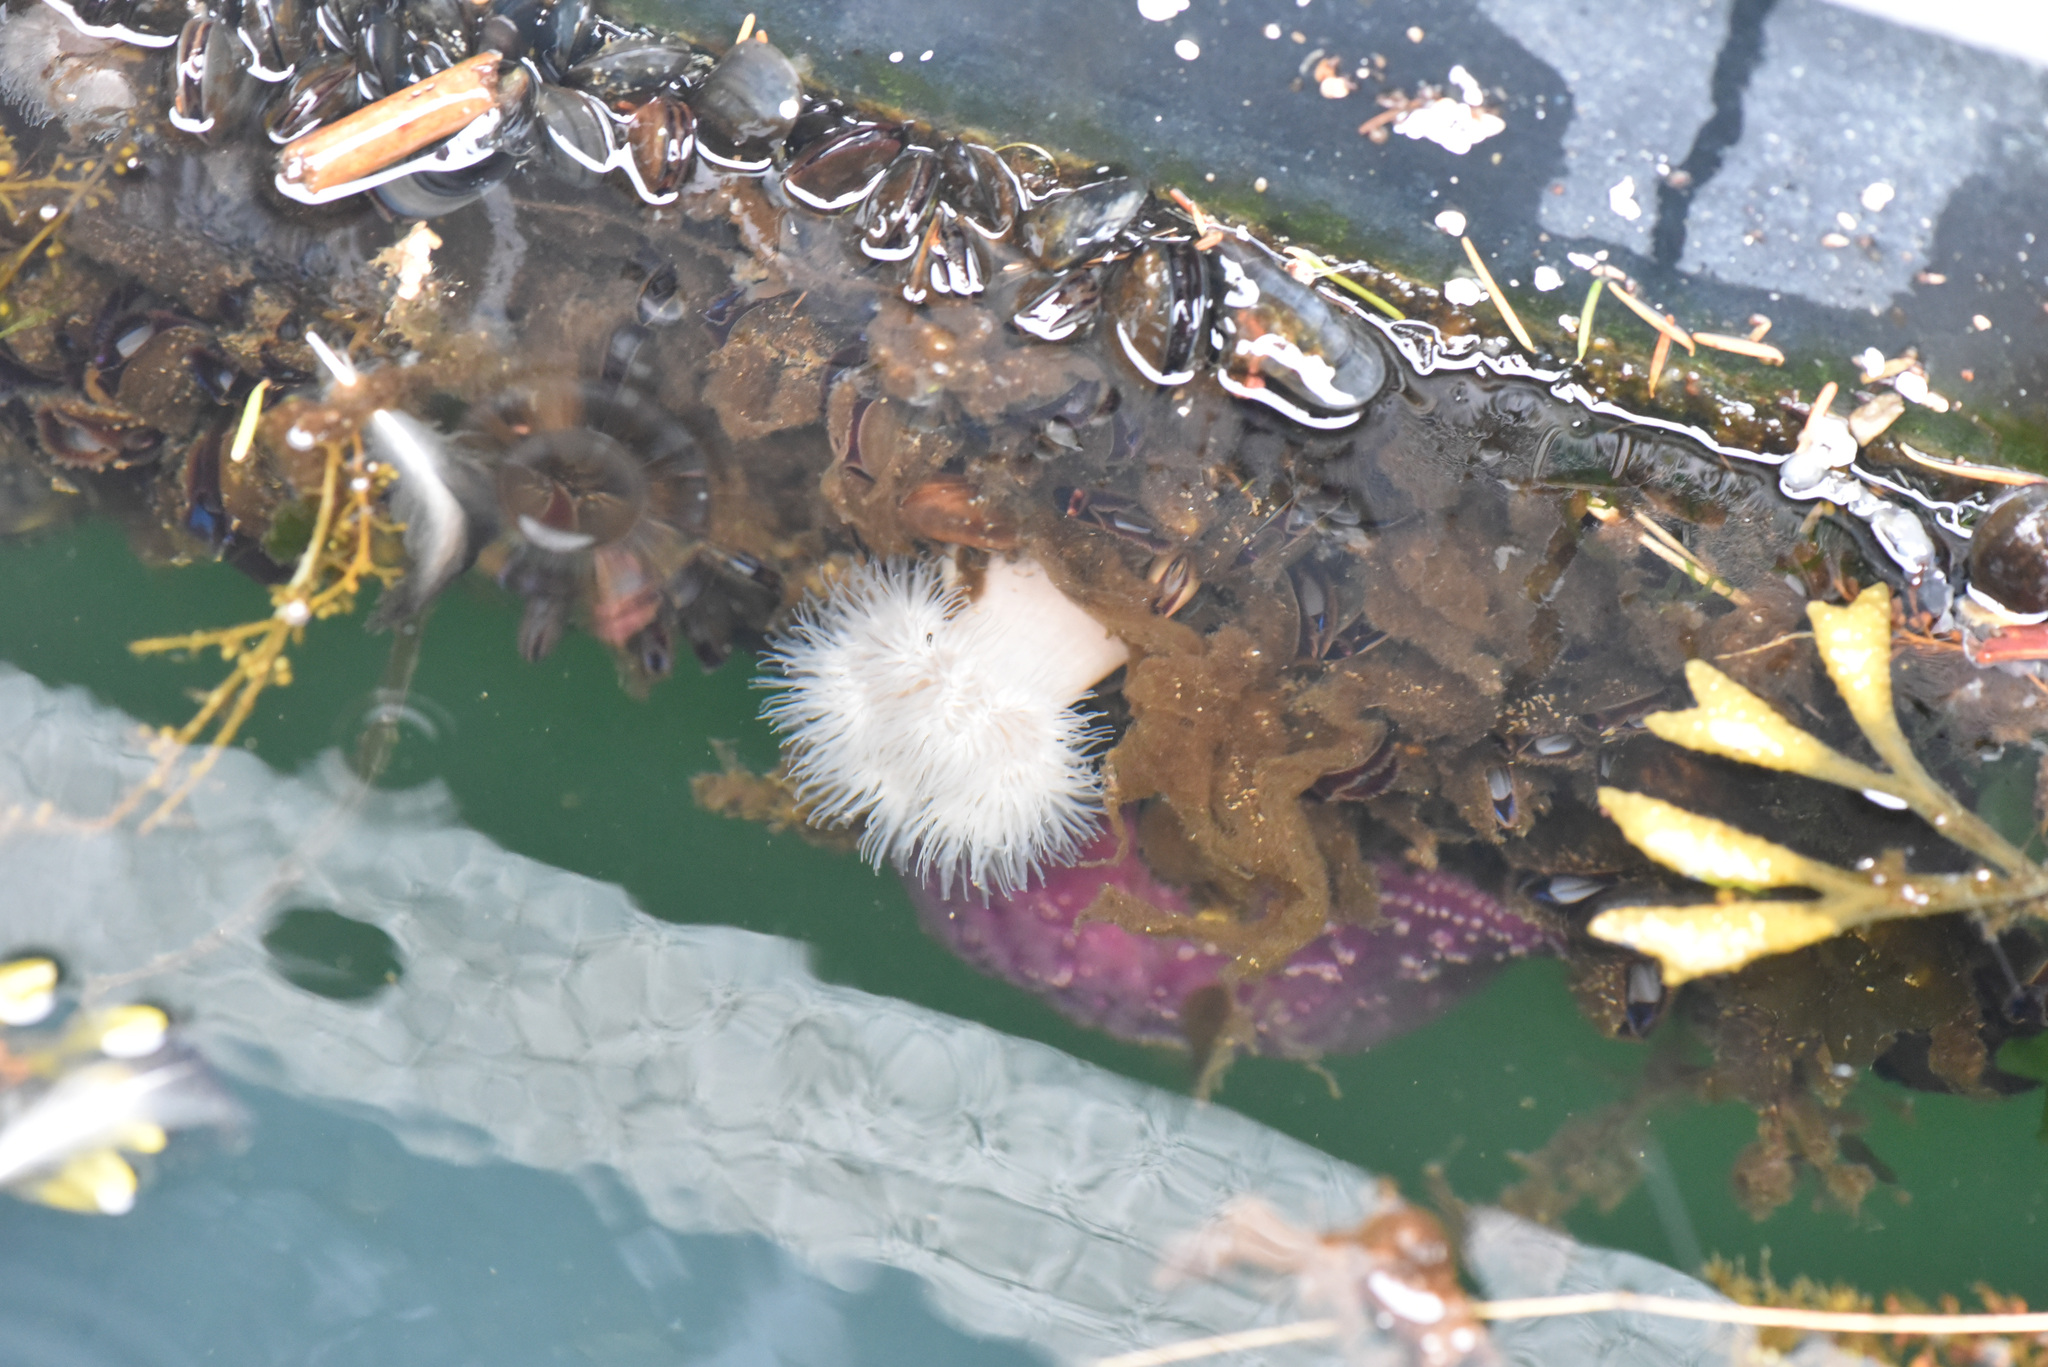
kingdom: Animalia
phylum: Cnidaria
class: Anthozoa
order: Actiniaria
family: Metridiidae
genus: Metridium
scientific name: Metridium senile
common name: Clonal plumose anemone
